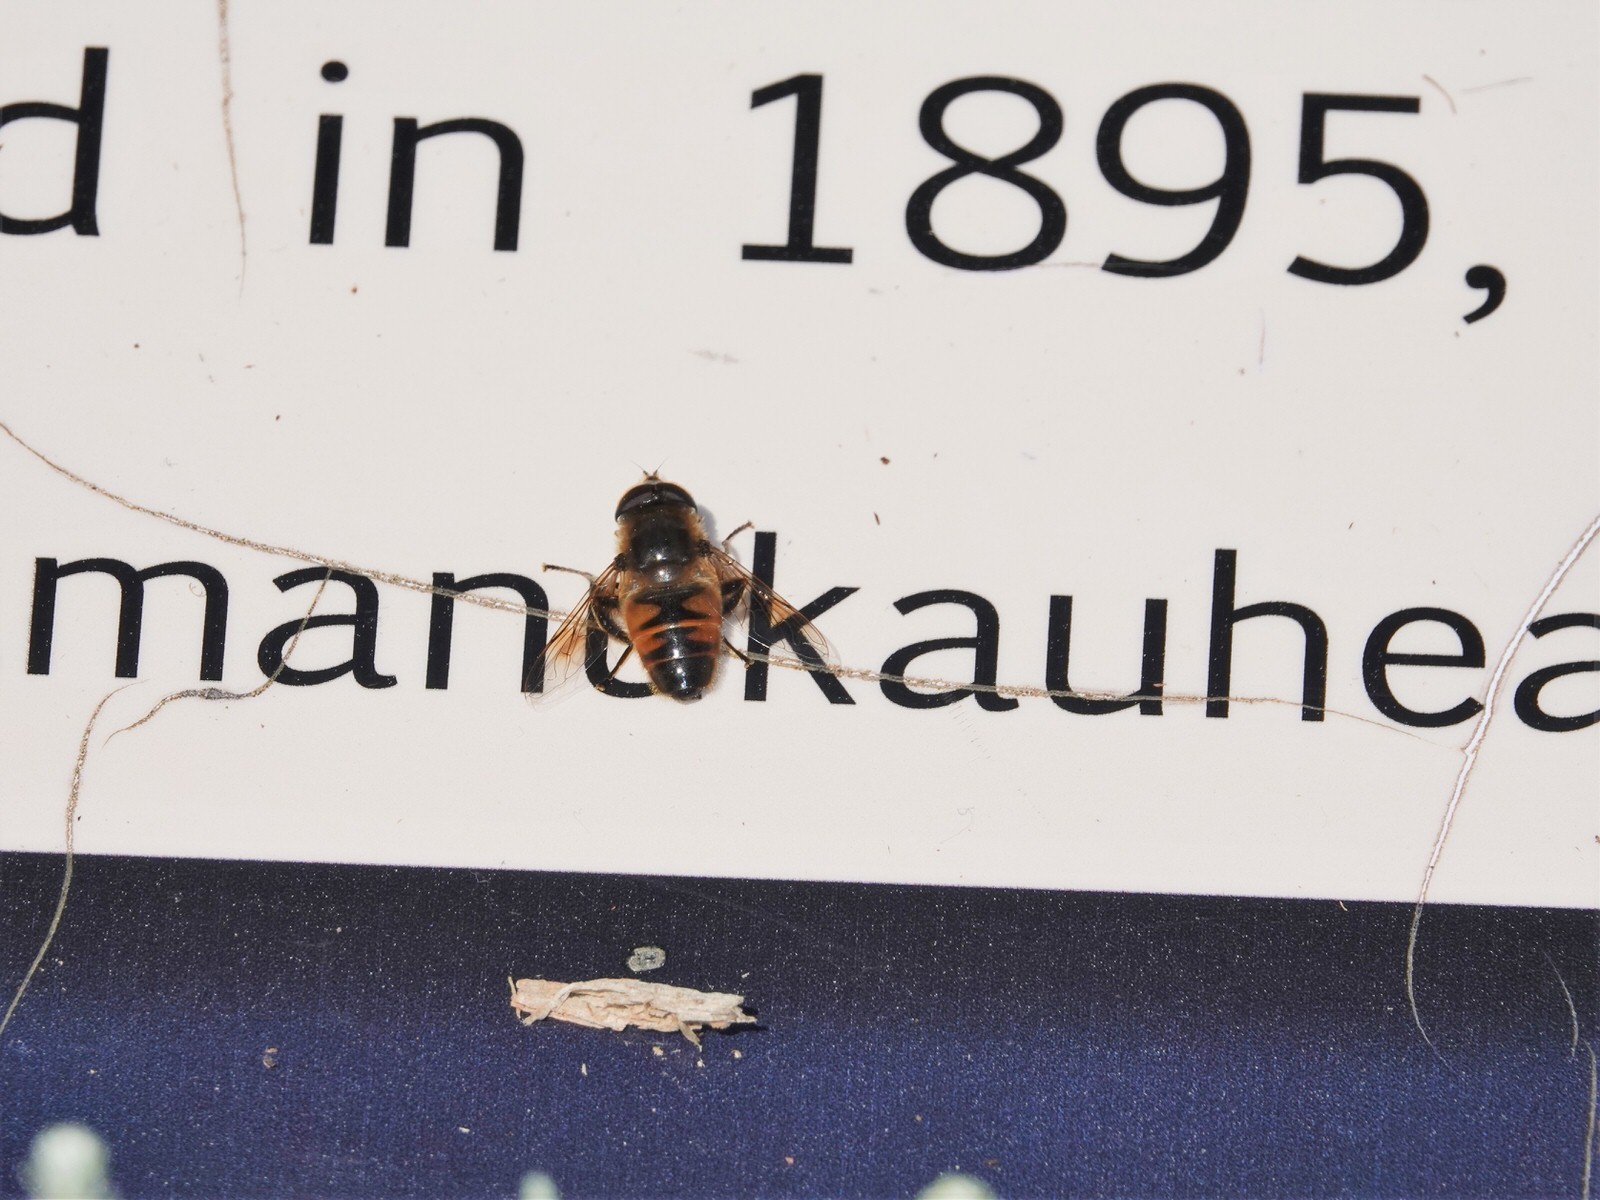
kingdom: Animalia
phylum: Arthropoda
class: Insecta
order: Diptera
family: Syrphidae
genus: Eristalis
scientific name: Eristalis tenax
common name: Drone fly
